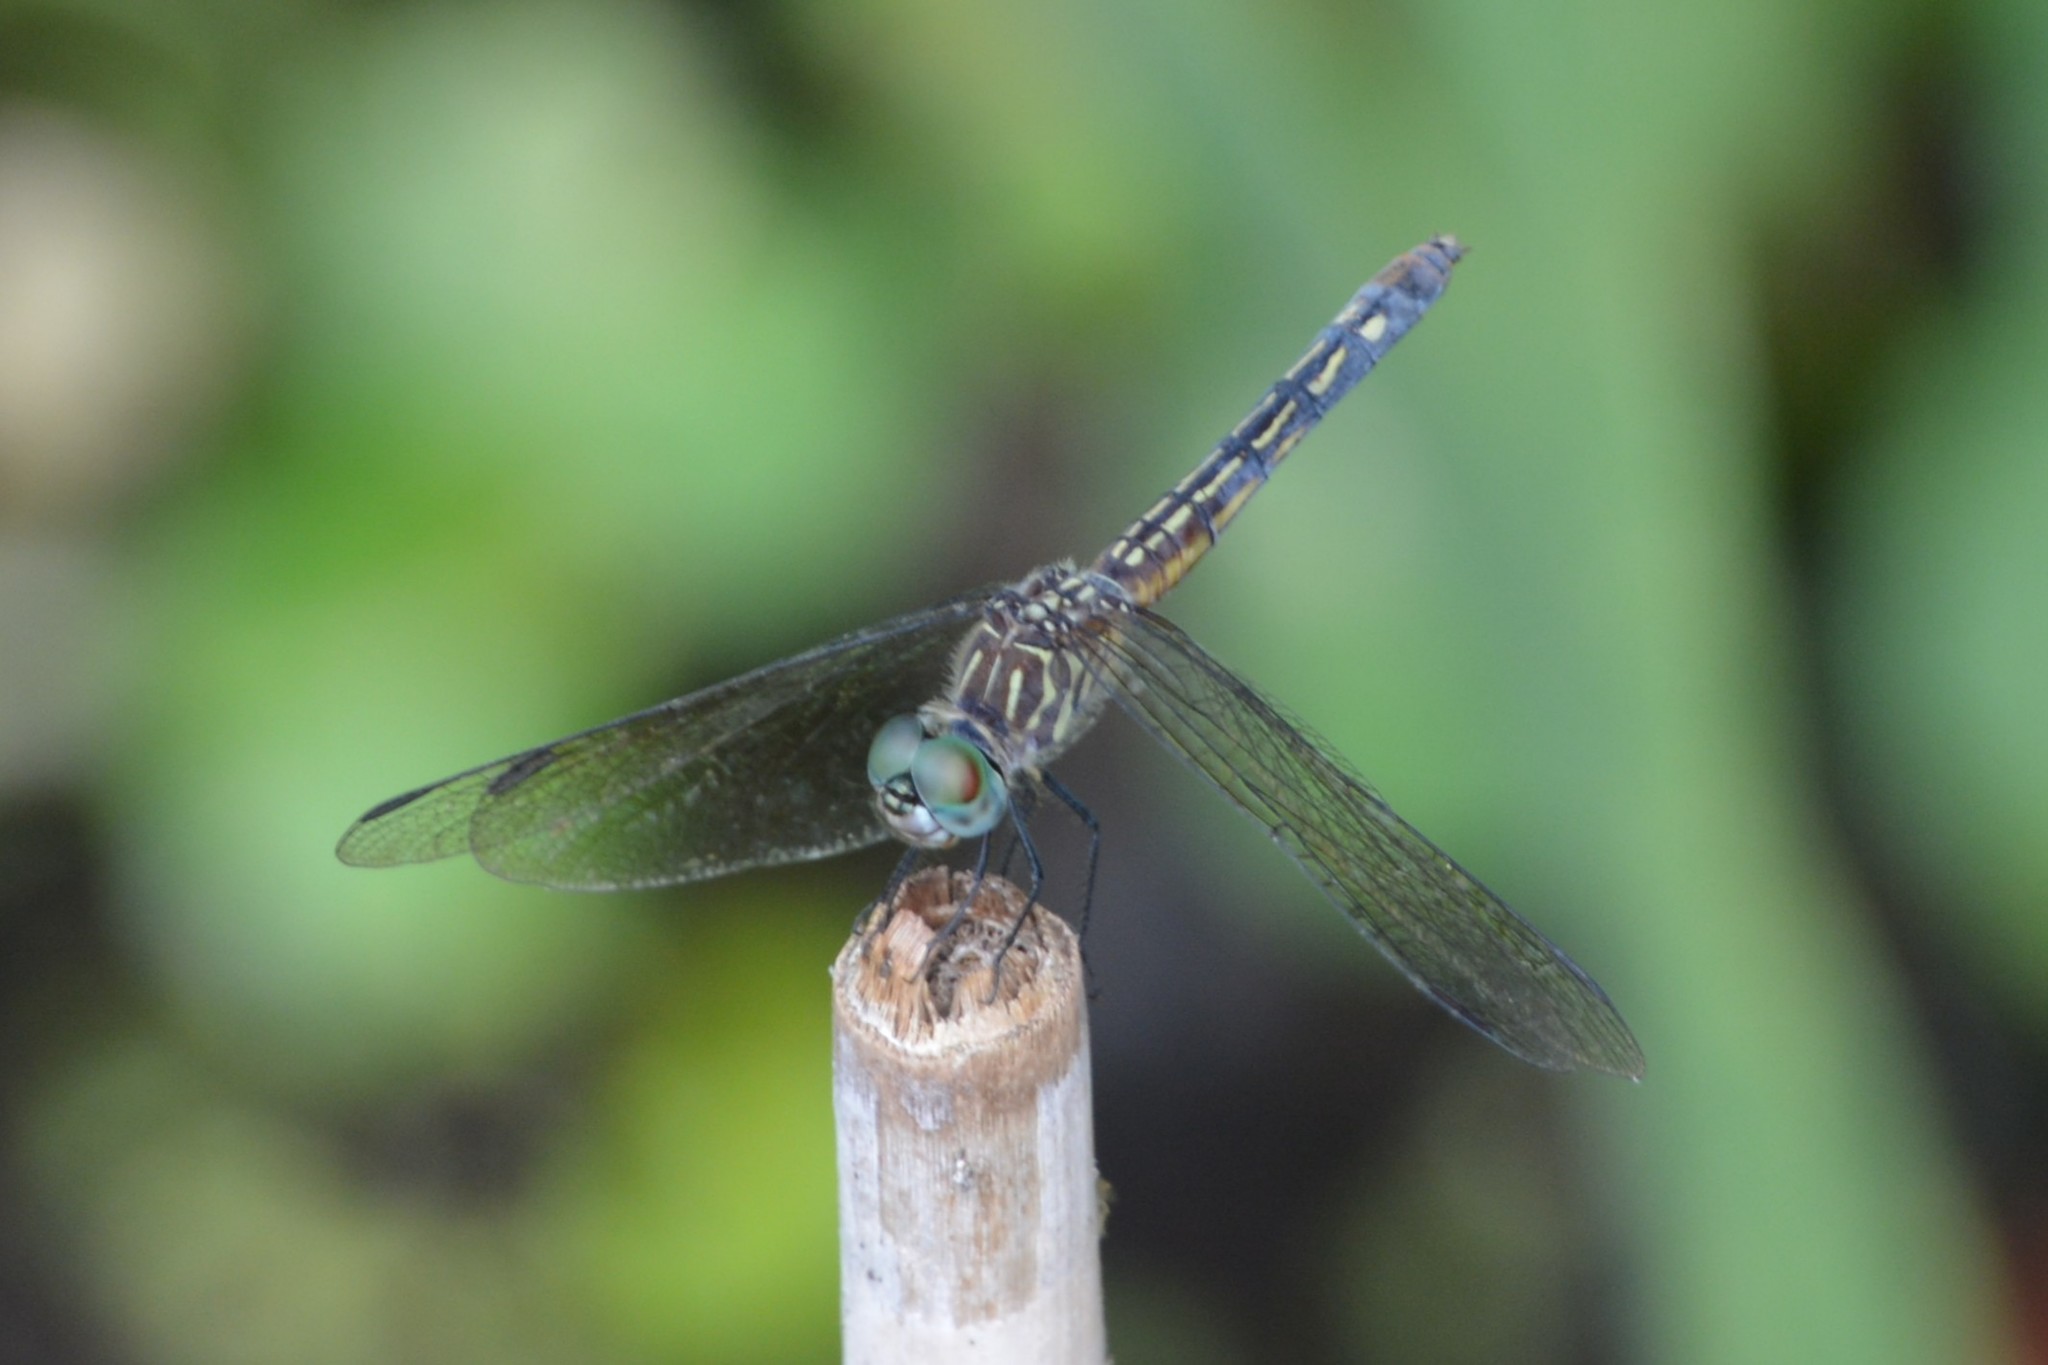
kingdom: Animalia
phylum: Arthropoda
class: Insecta
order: Odonata
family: Libellulidae
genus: Pachydiplax
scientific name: Pachydiplax longipennis
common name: Blue dasher
